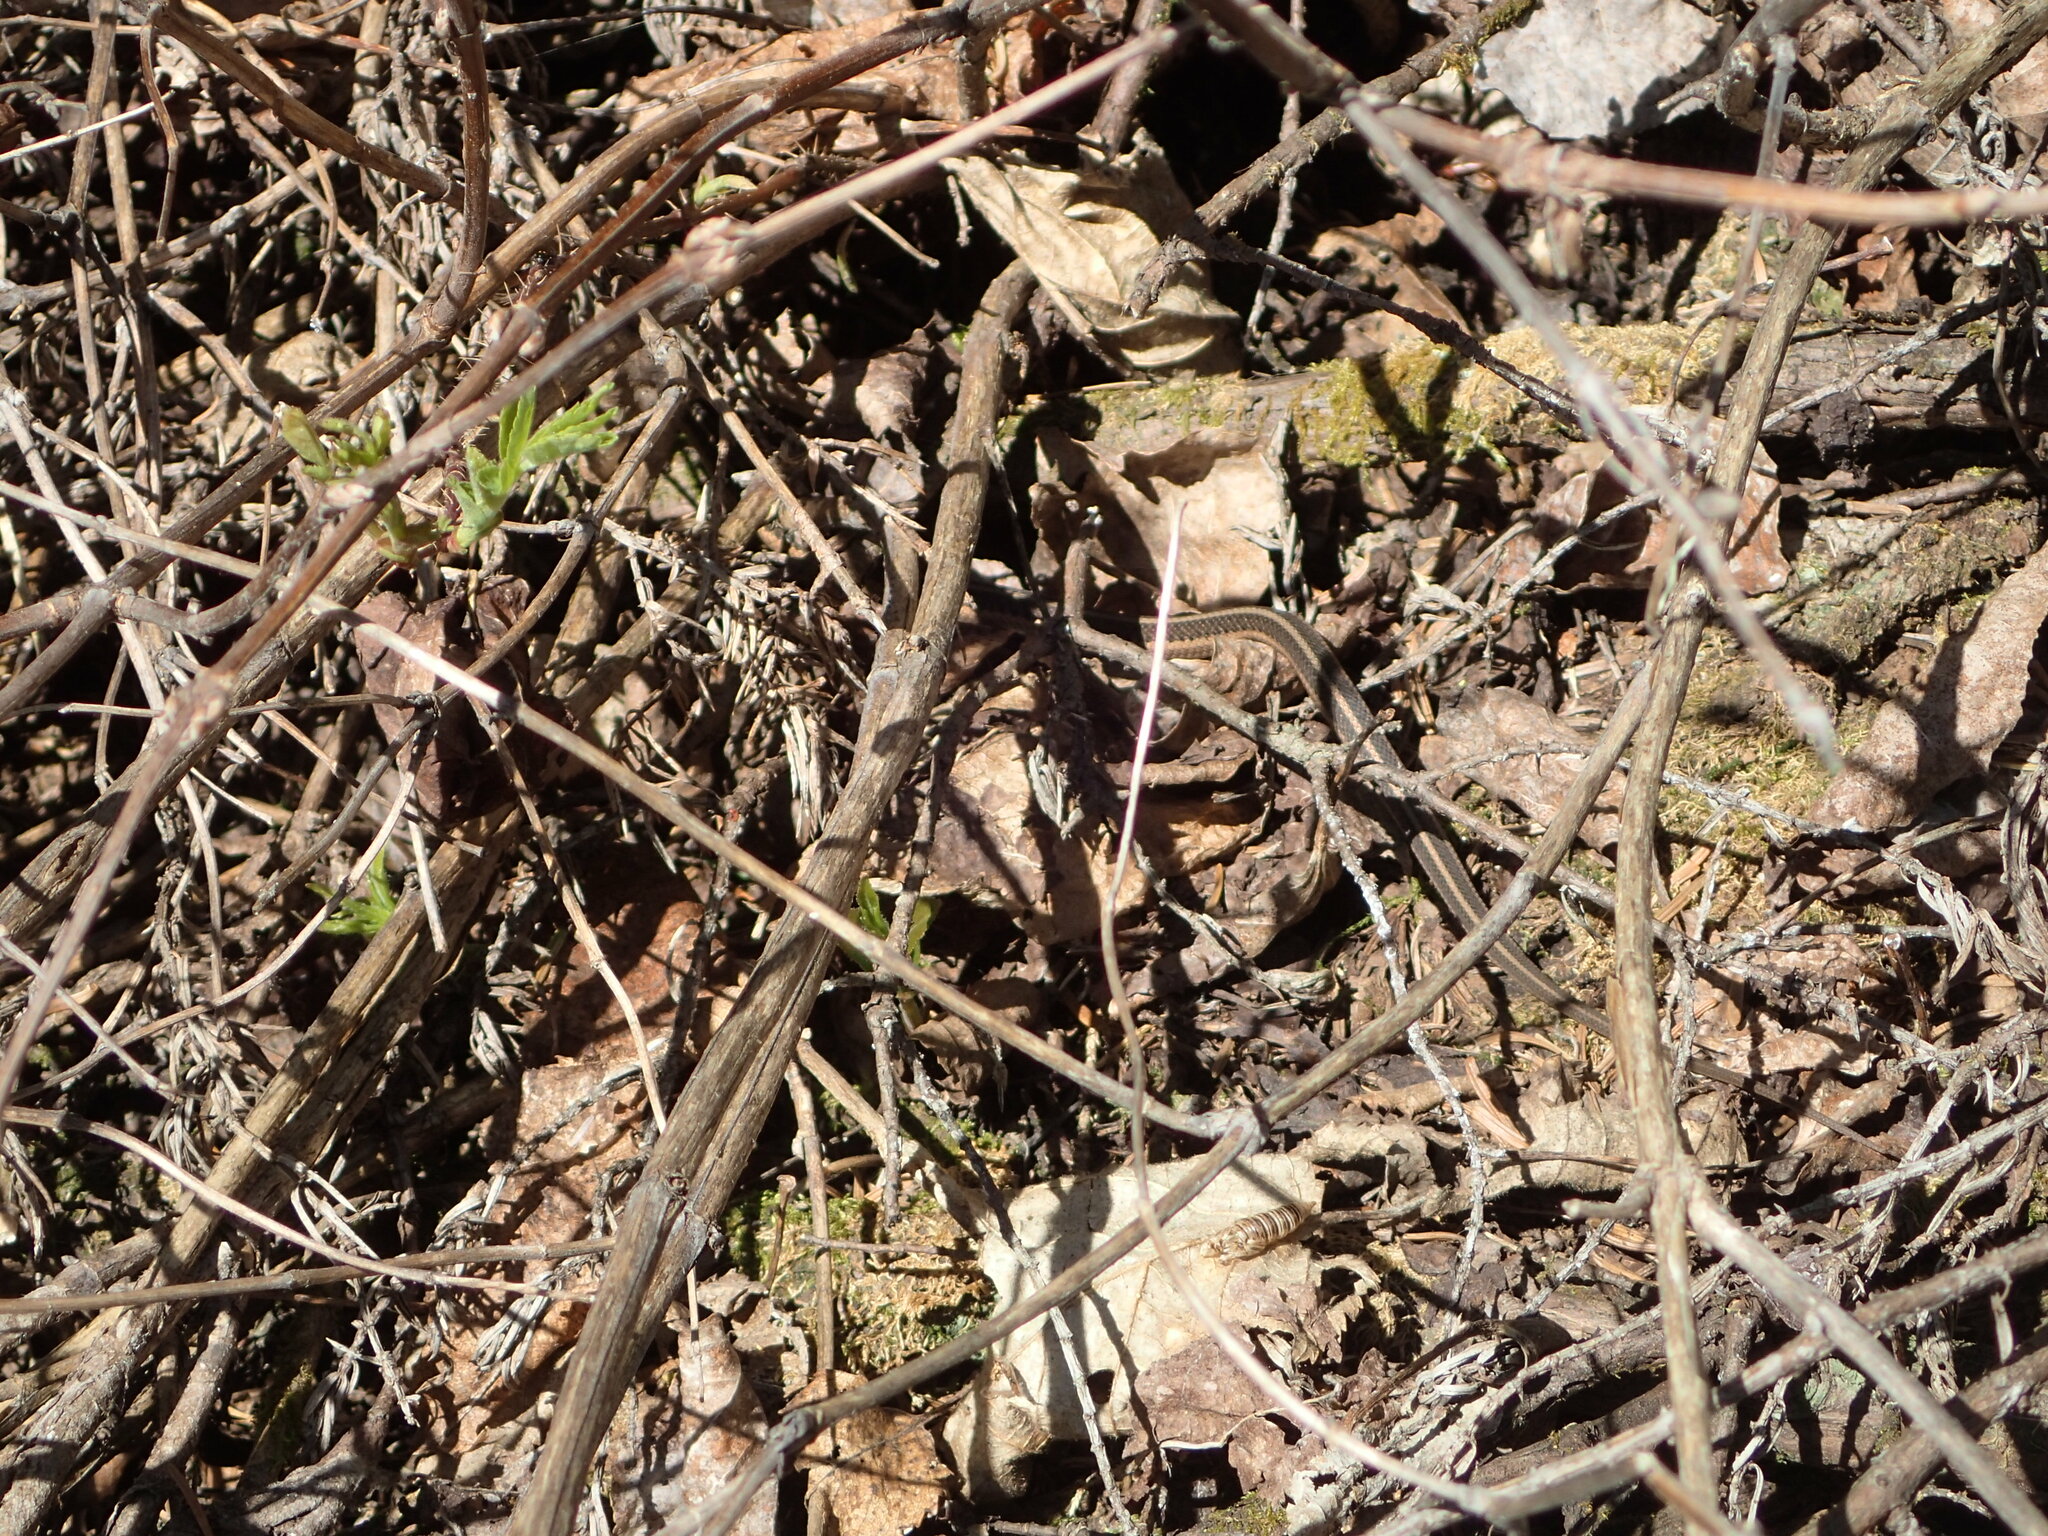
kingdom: Animalia
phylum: Chordata
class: Squamata
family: Colubridae
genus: Thamnophis
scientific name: Thamnophis sirtalis
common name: Common garter snake
